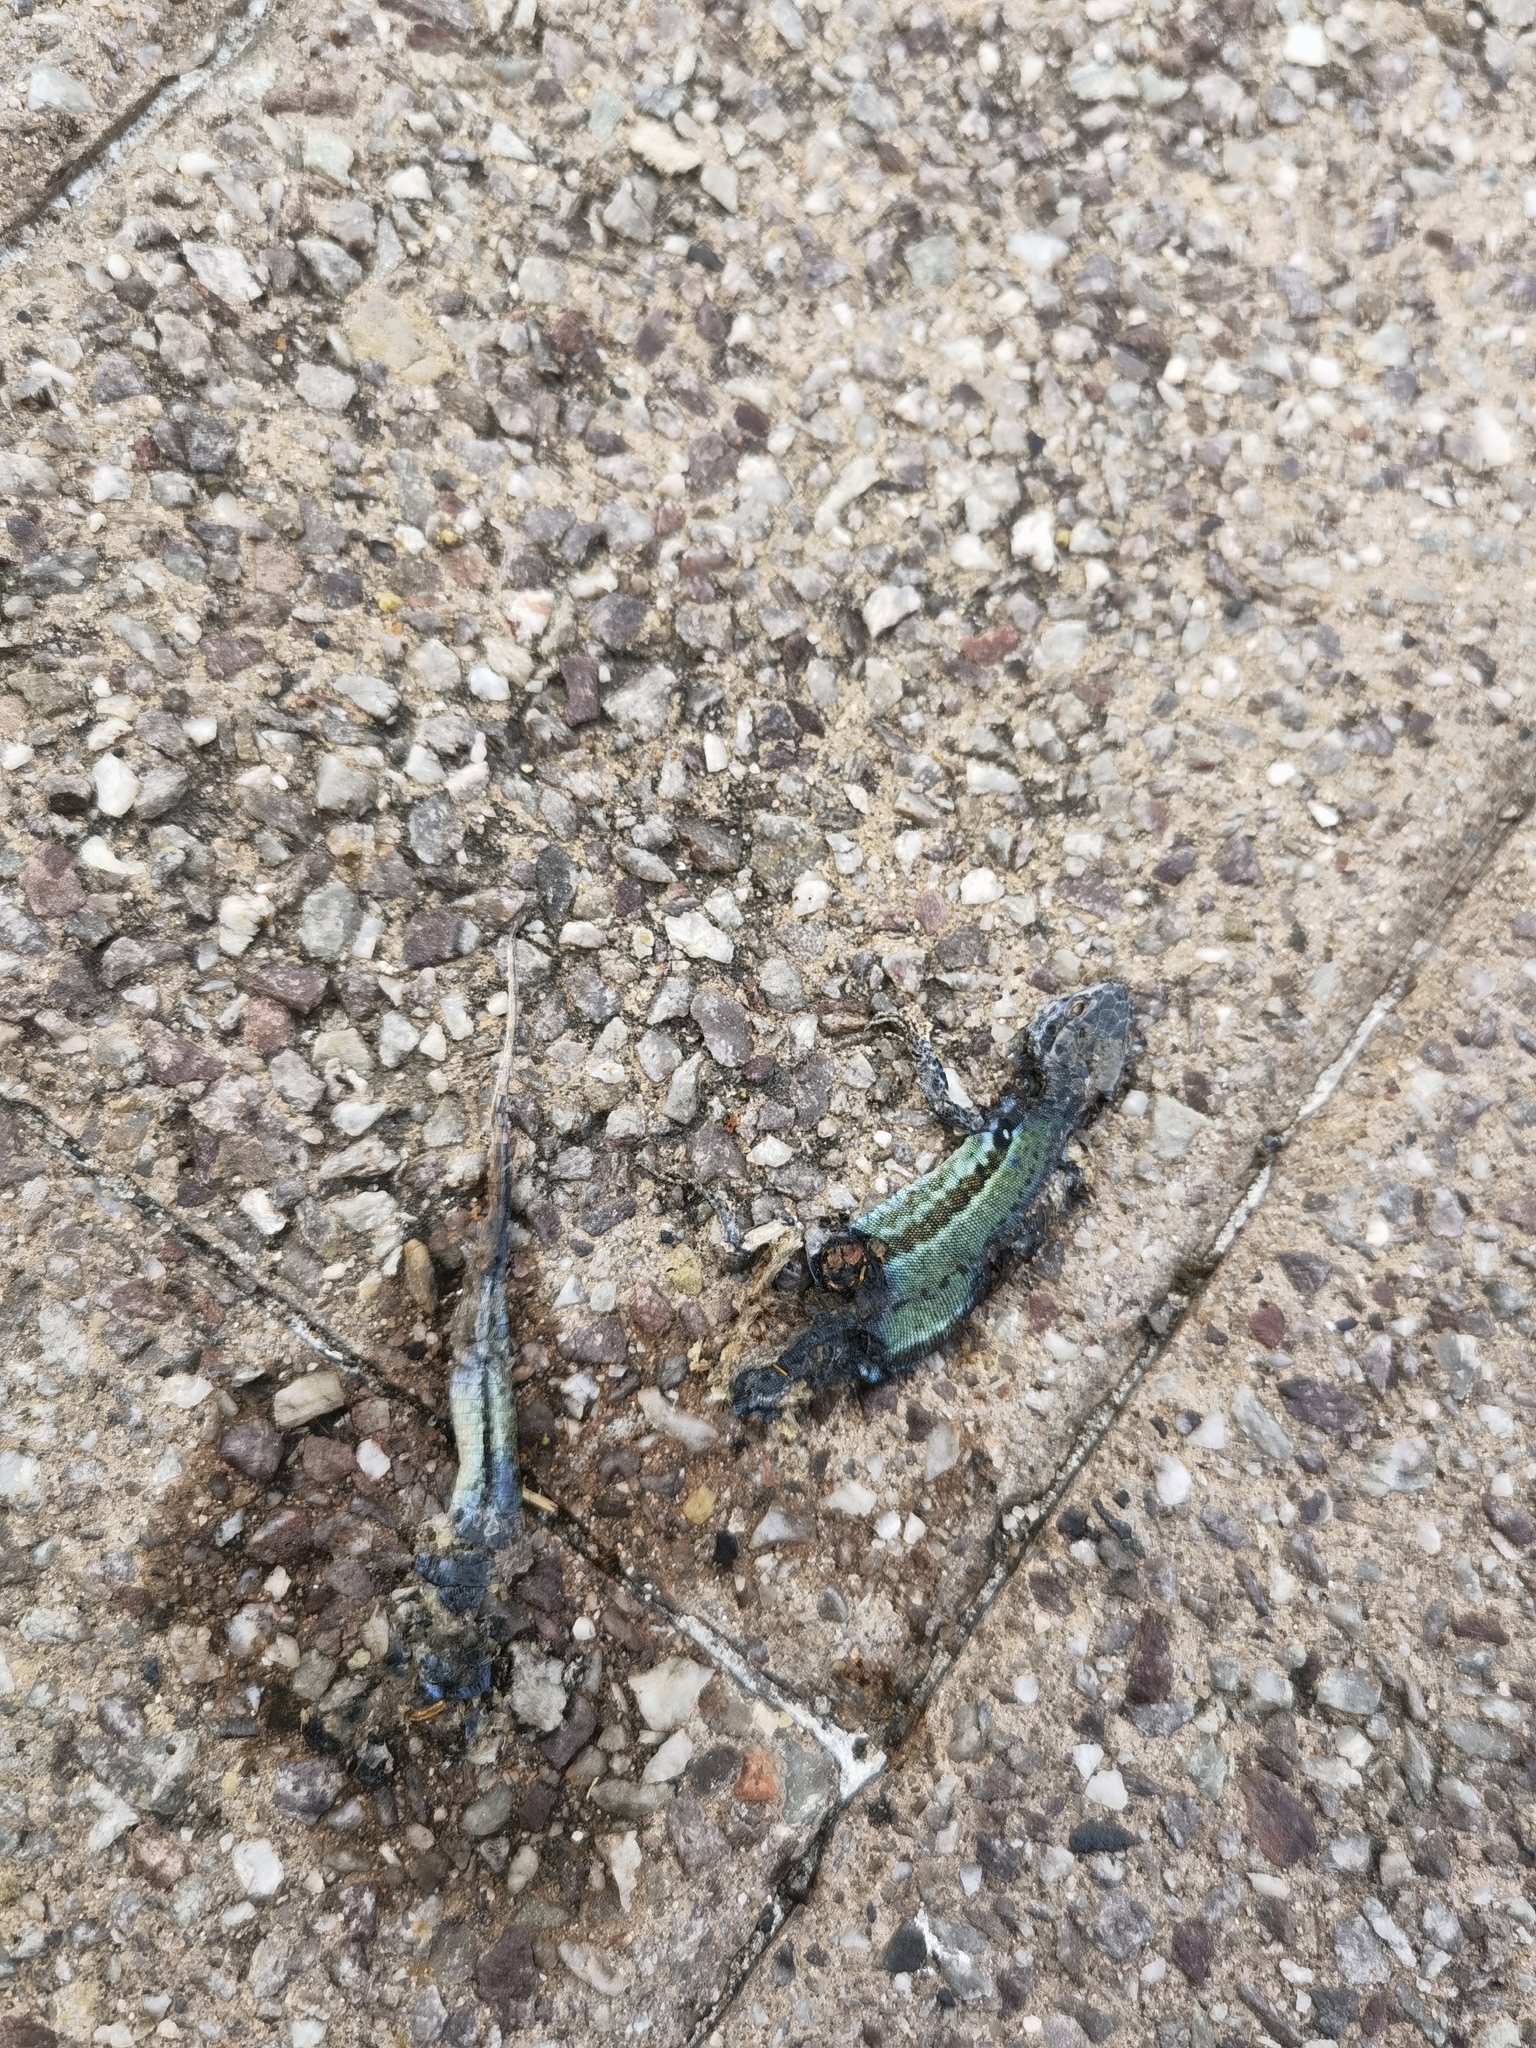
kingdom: Animalia
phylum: Chordata
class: Squamata
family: Lacertidae
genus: Podarcis
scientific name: Podarcis muralis
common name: Common wall lizard
